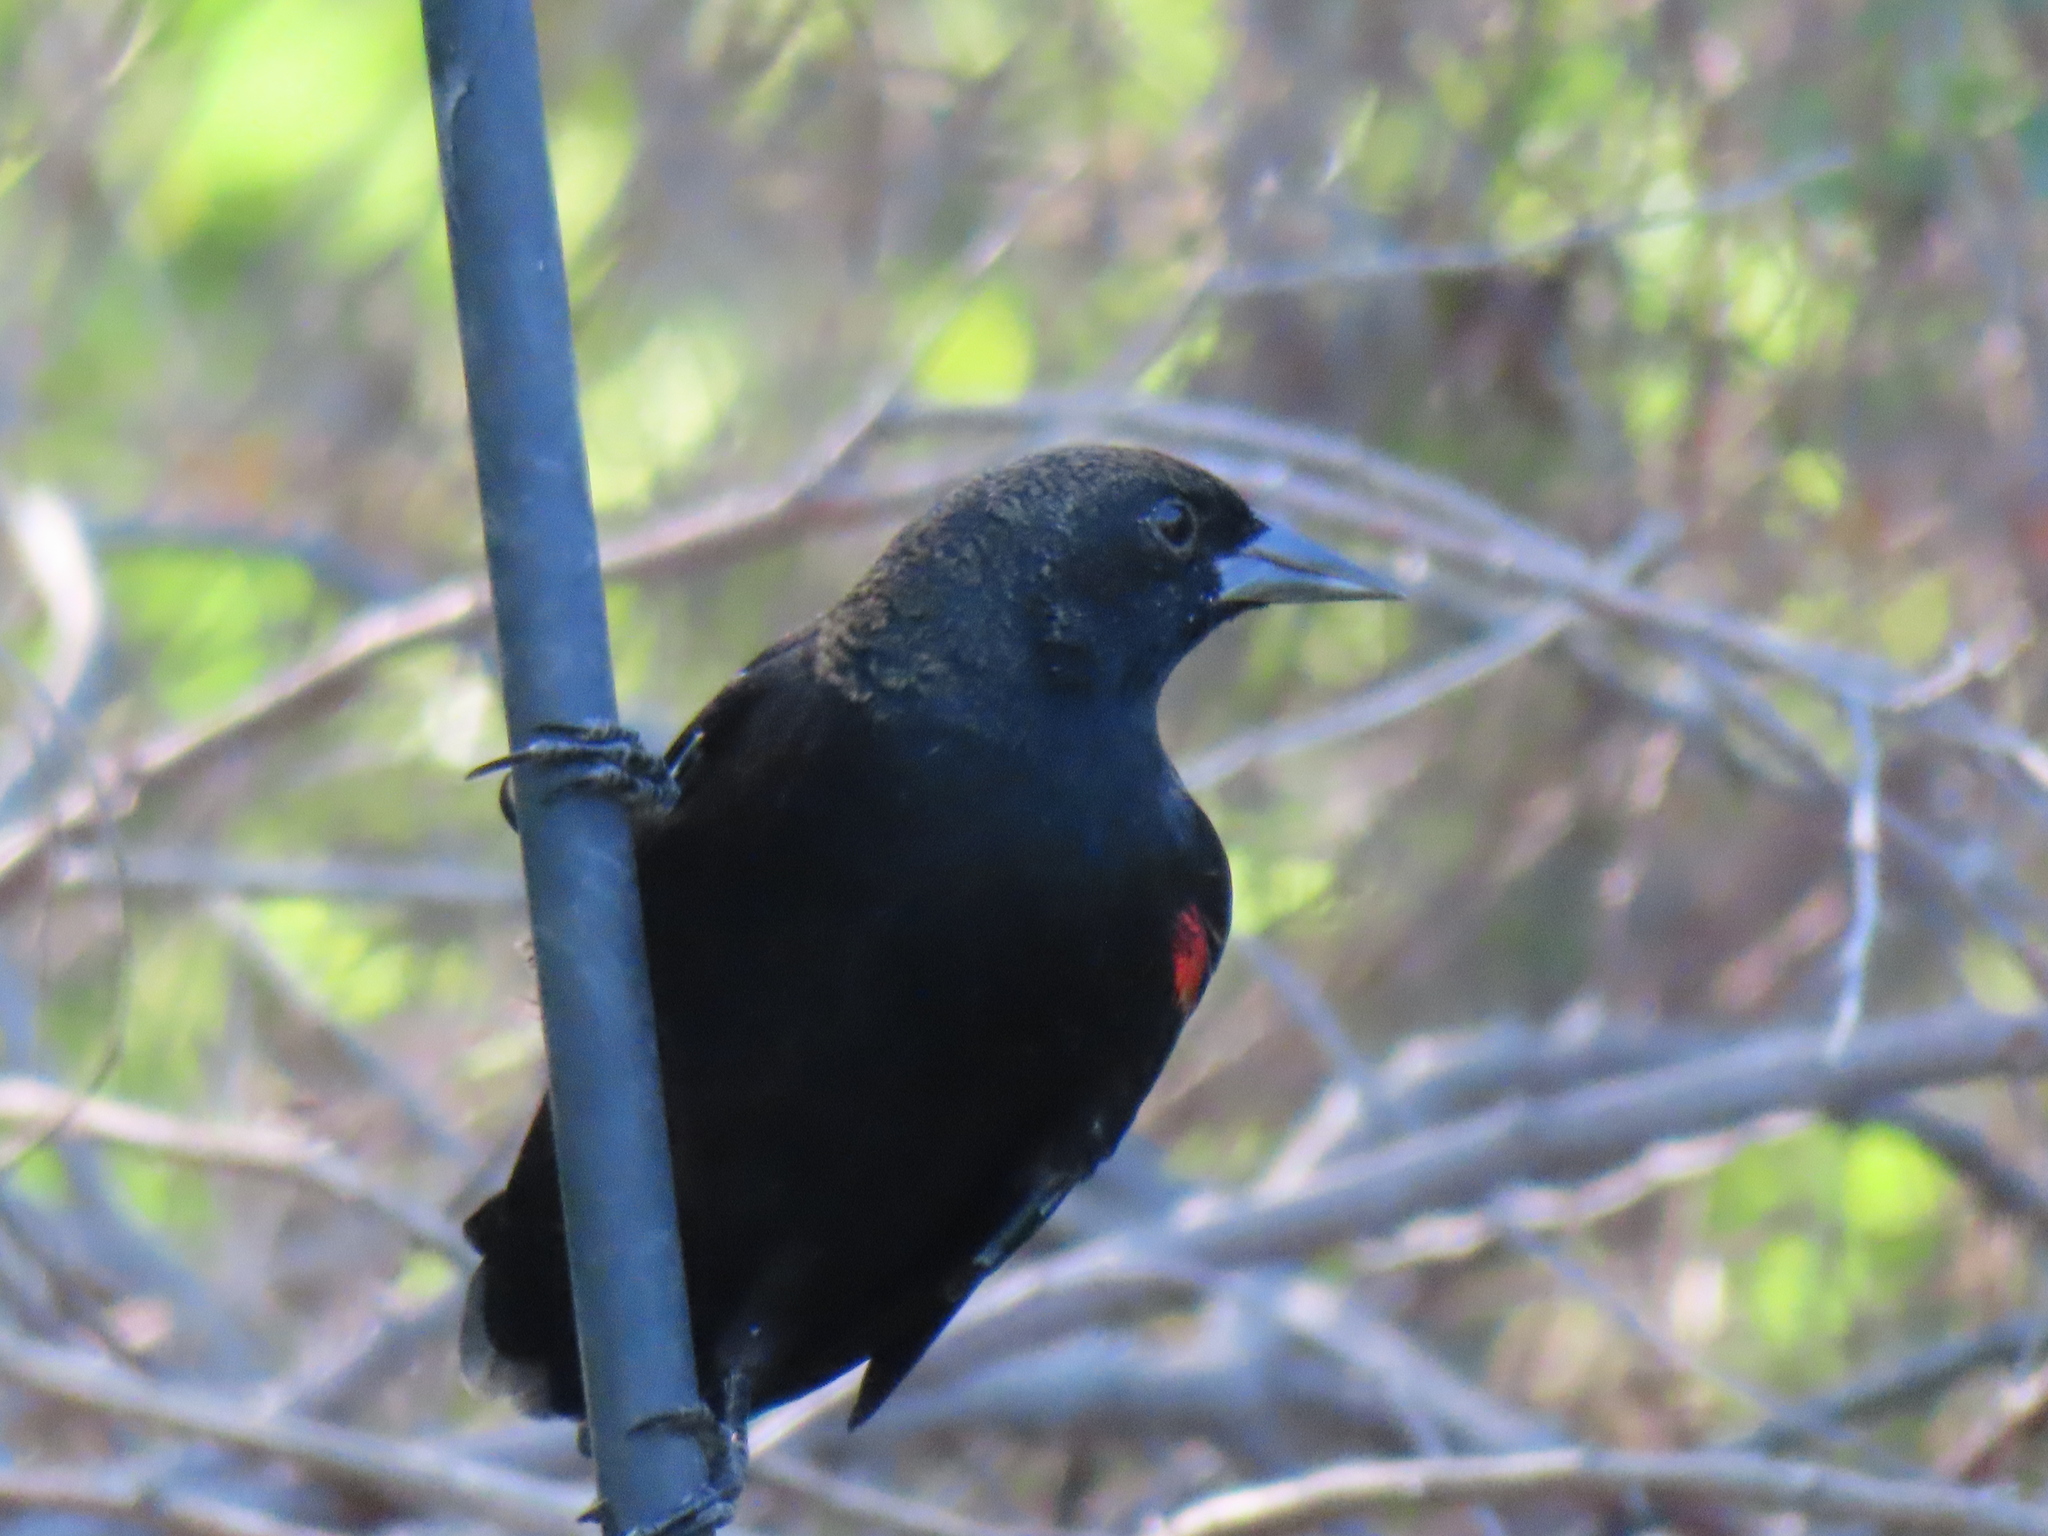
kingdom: Animalia
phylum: Chordata
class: Aves
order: Passeriformes
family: Icteridae
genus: Agelaius
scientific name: Agelaius phoeniceus
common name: Red-winged blackbird
